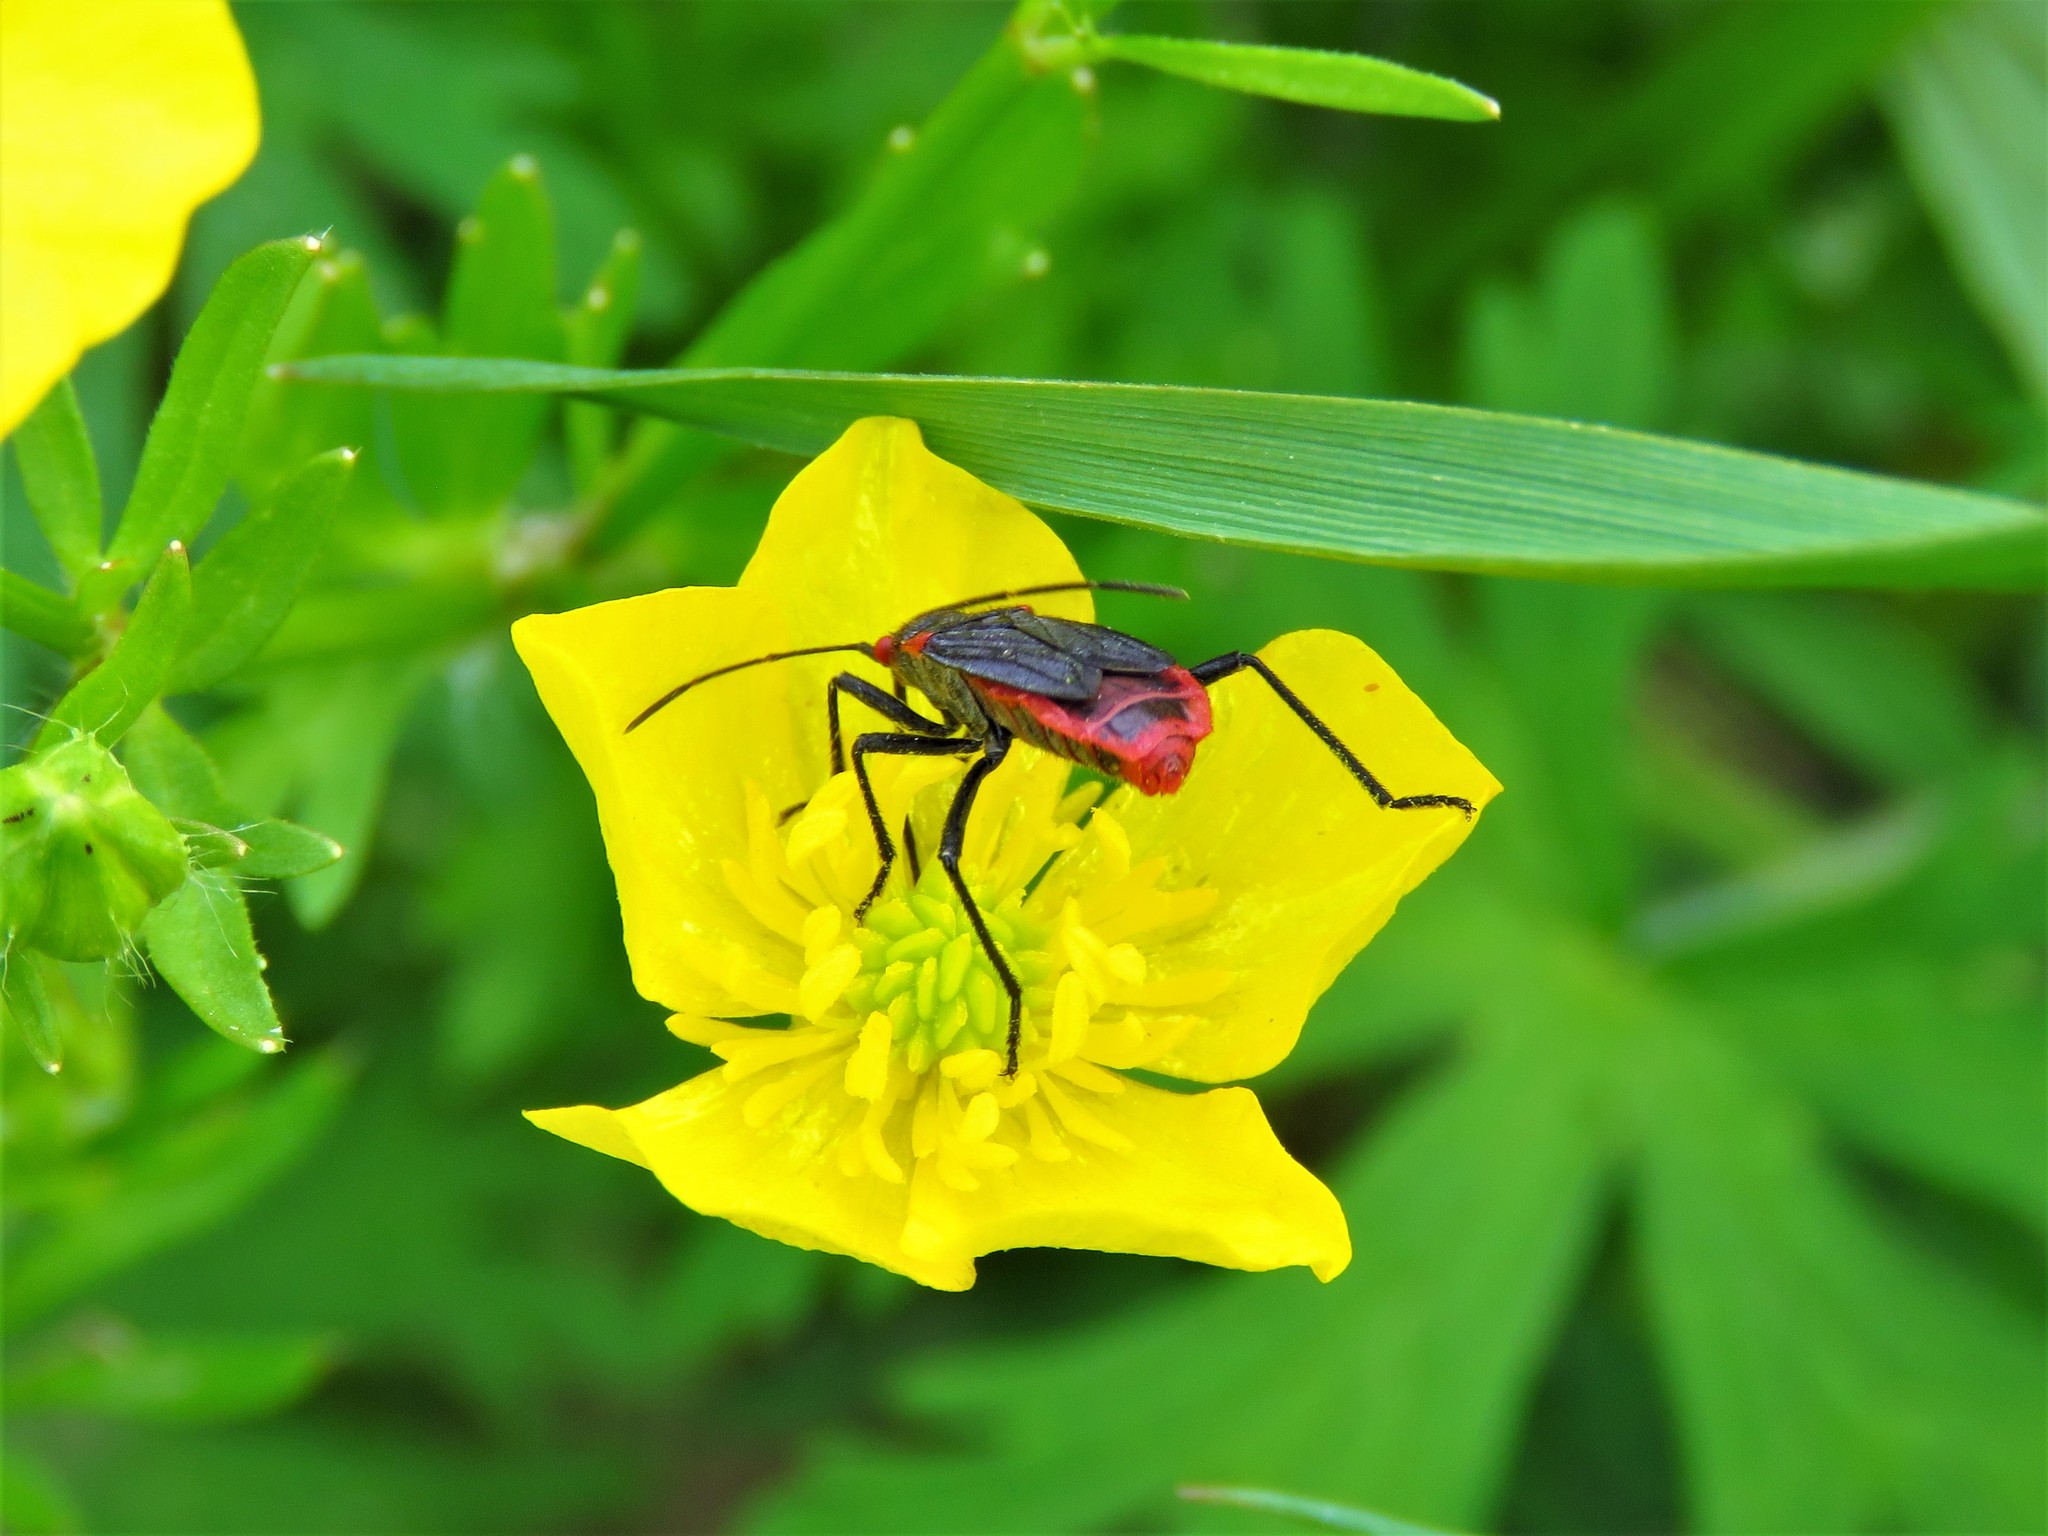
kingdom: Animalia
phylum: Arthropoda
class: Insecta
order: Hemiptera
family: Rhopalidae
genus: Jadera
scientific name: Jadera haematoloma
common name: Red-shouldered bug
